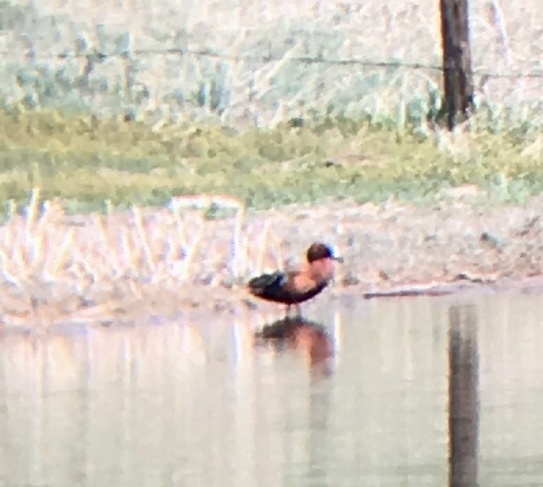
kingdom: Animalia
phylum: Chordata
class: Aves
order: Anseriformes
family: Anatidae
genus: Spatula
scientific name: Spatula cyanoptera
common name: Cinnamon teal
